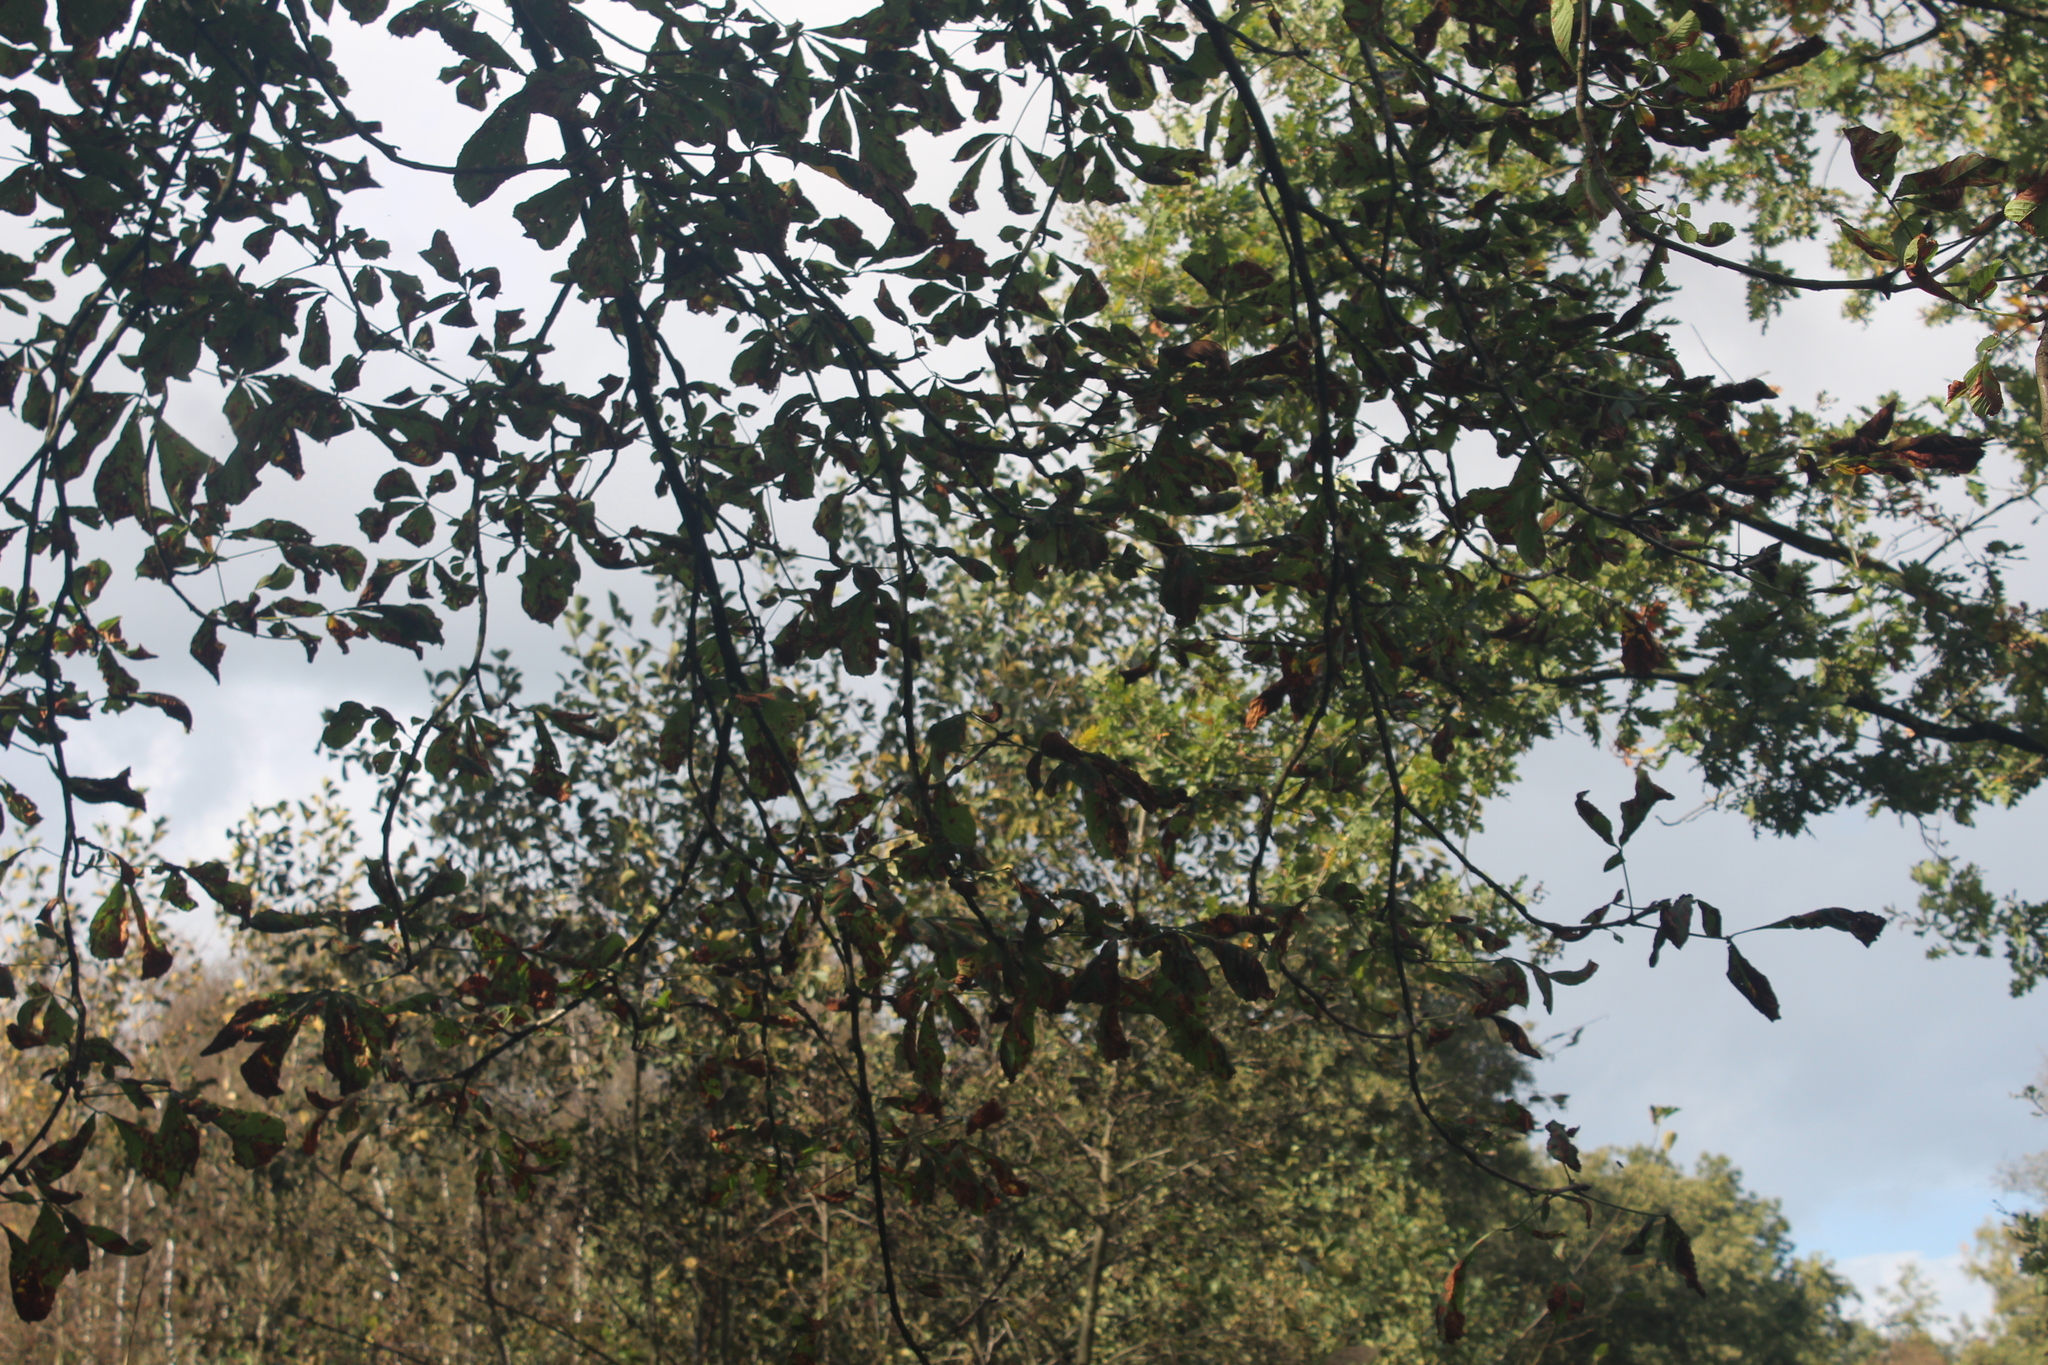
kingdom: Plantae
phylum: Tracheophyta
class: Magnoliopsida
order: Sapindales
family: Sapindaceae
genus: Aesculus
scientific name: Aesculus hippocastanum
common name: Horse-chestnut
